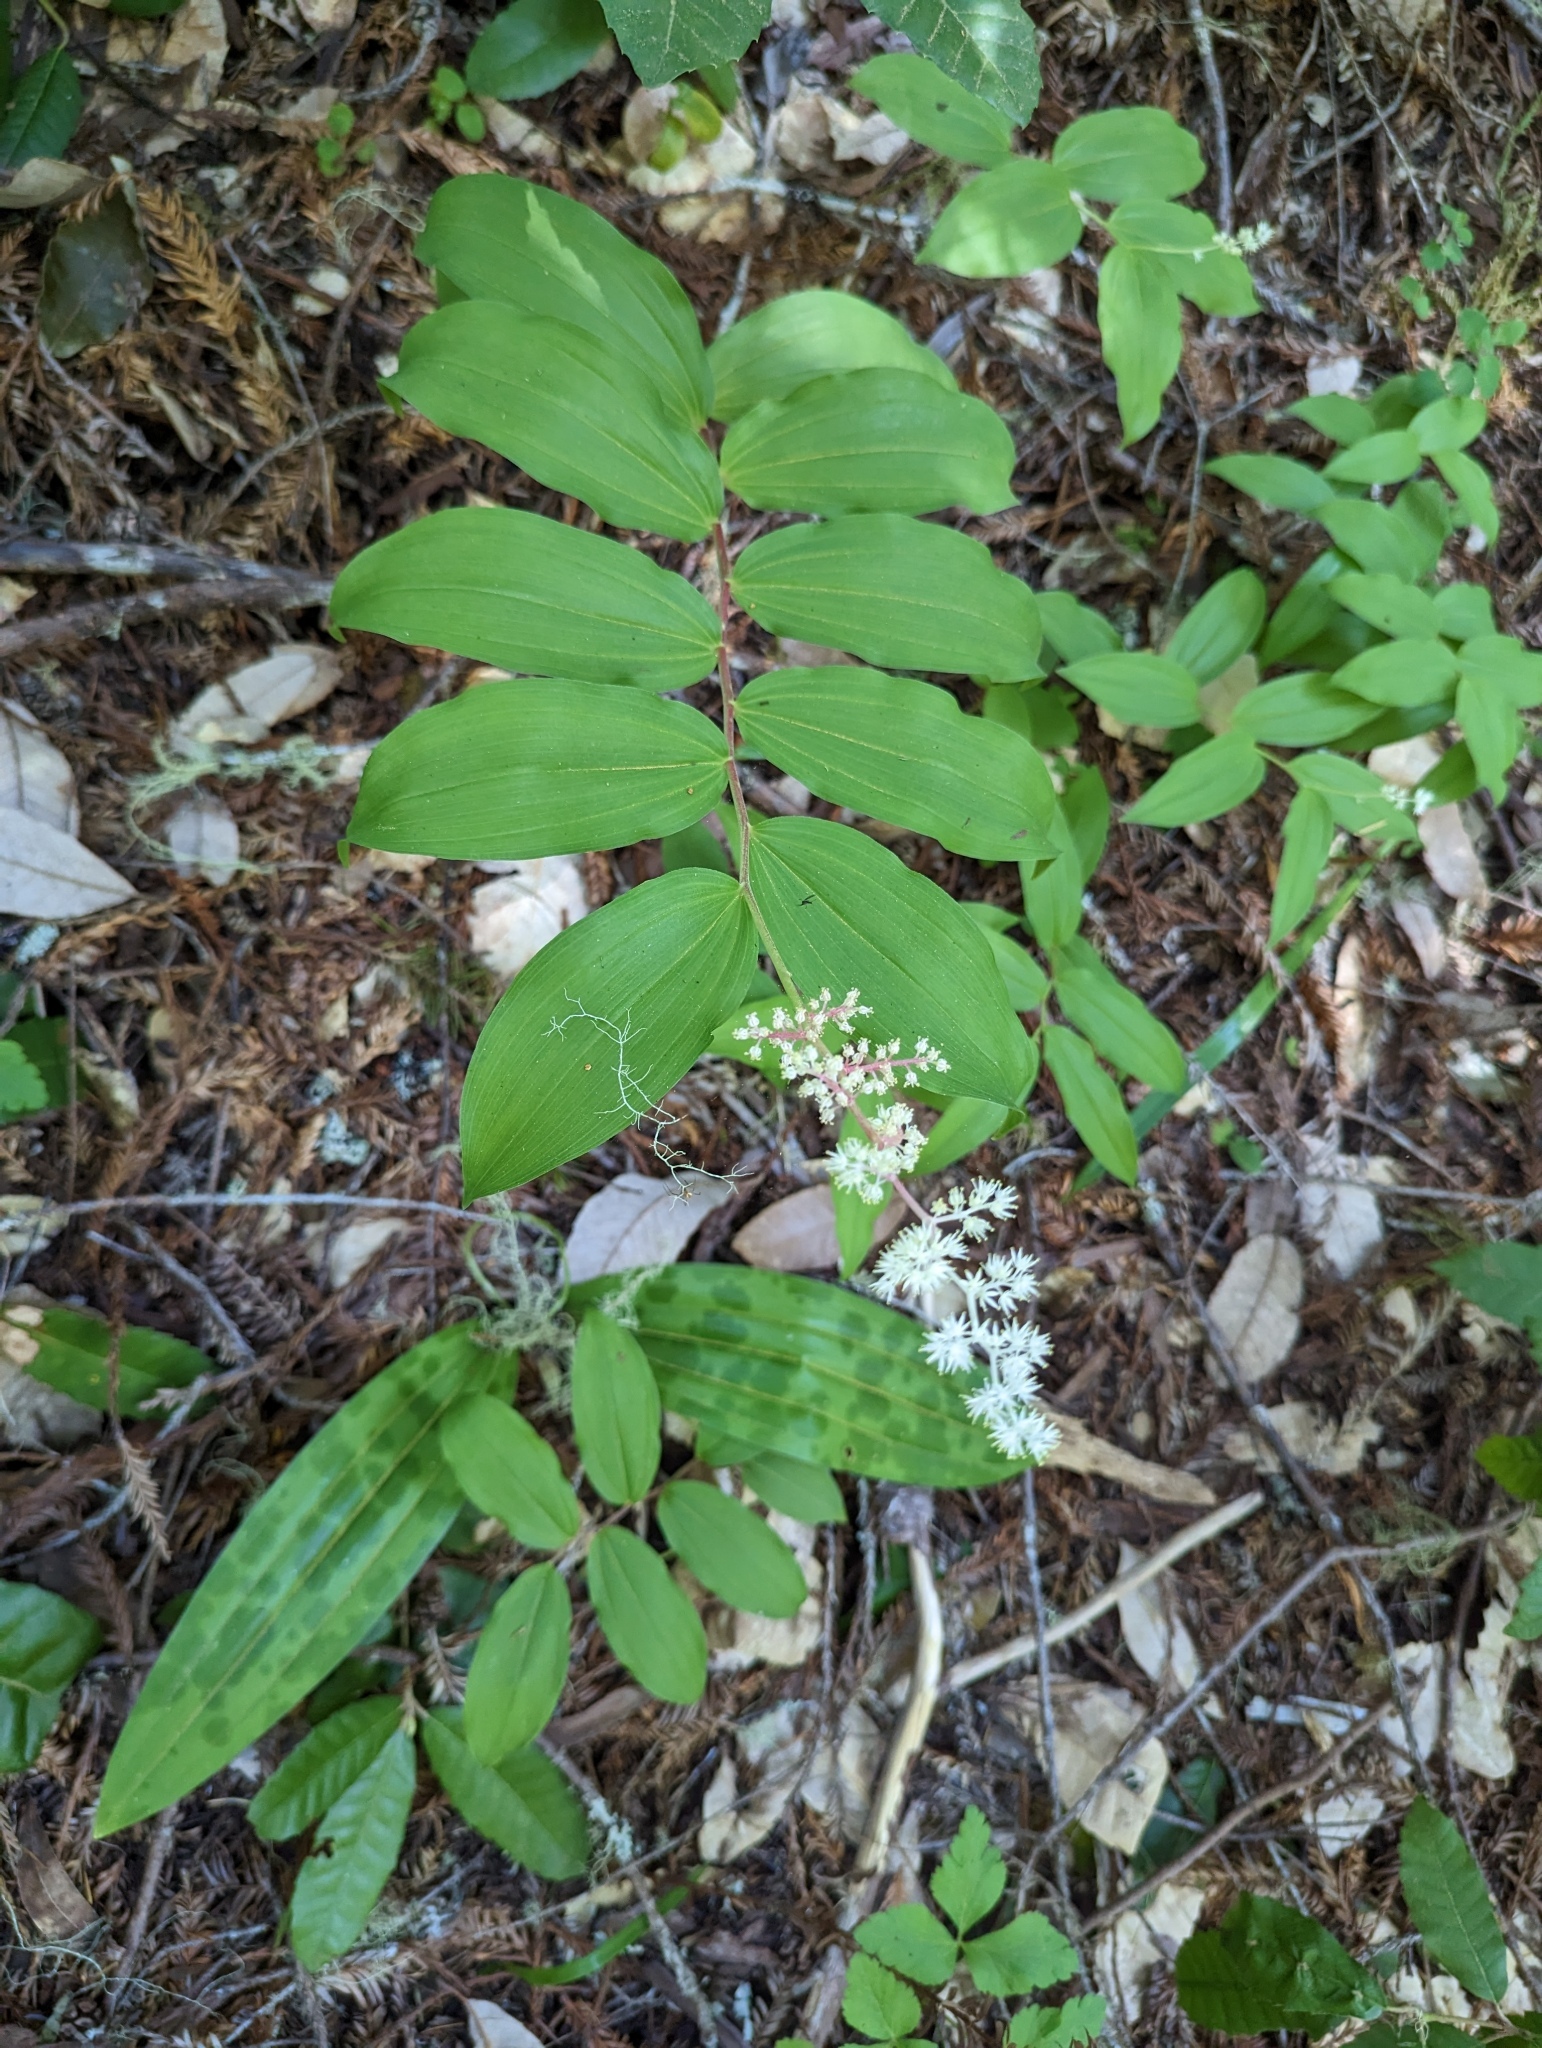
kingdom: Plantae
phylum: Tracheophyta
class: Liliopsida
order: Asparagales
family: Asparagaceae
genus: Maianthemum
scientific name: Maianthemum racemosum
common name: False spikenard
